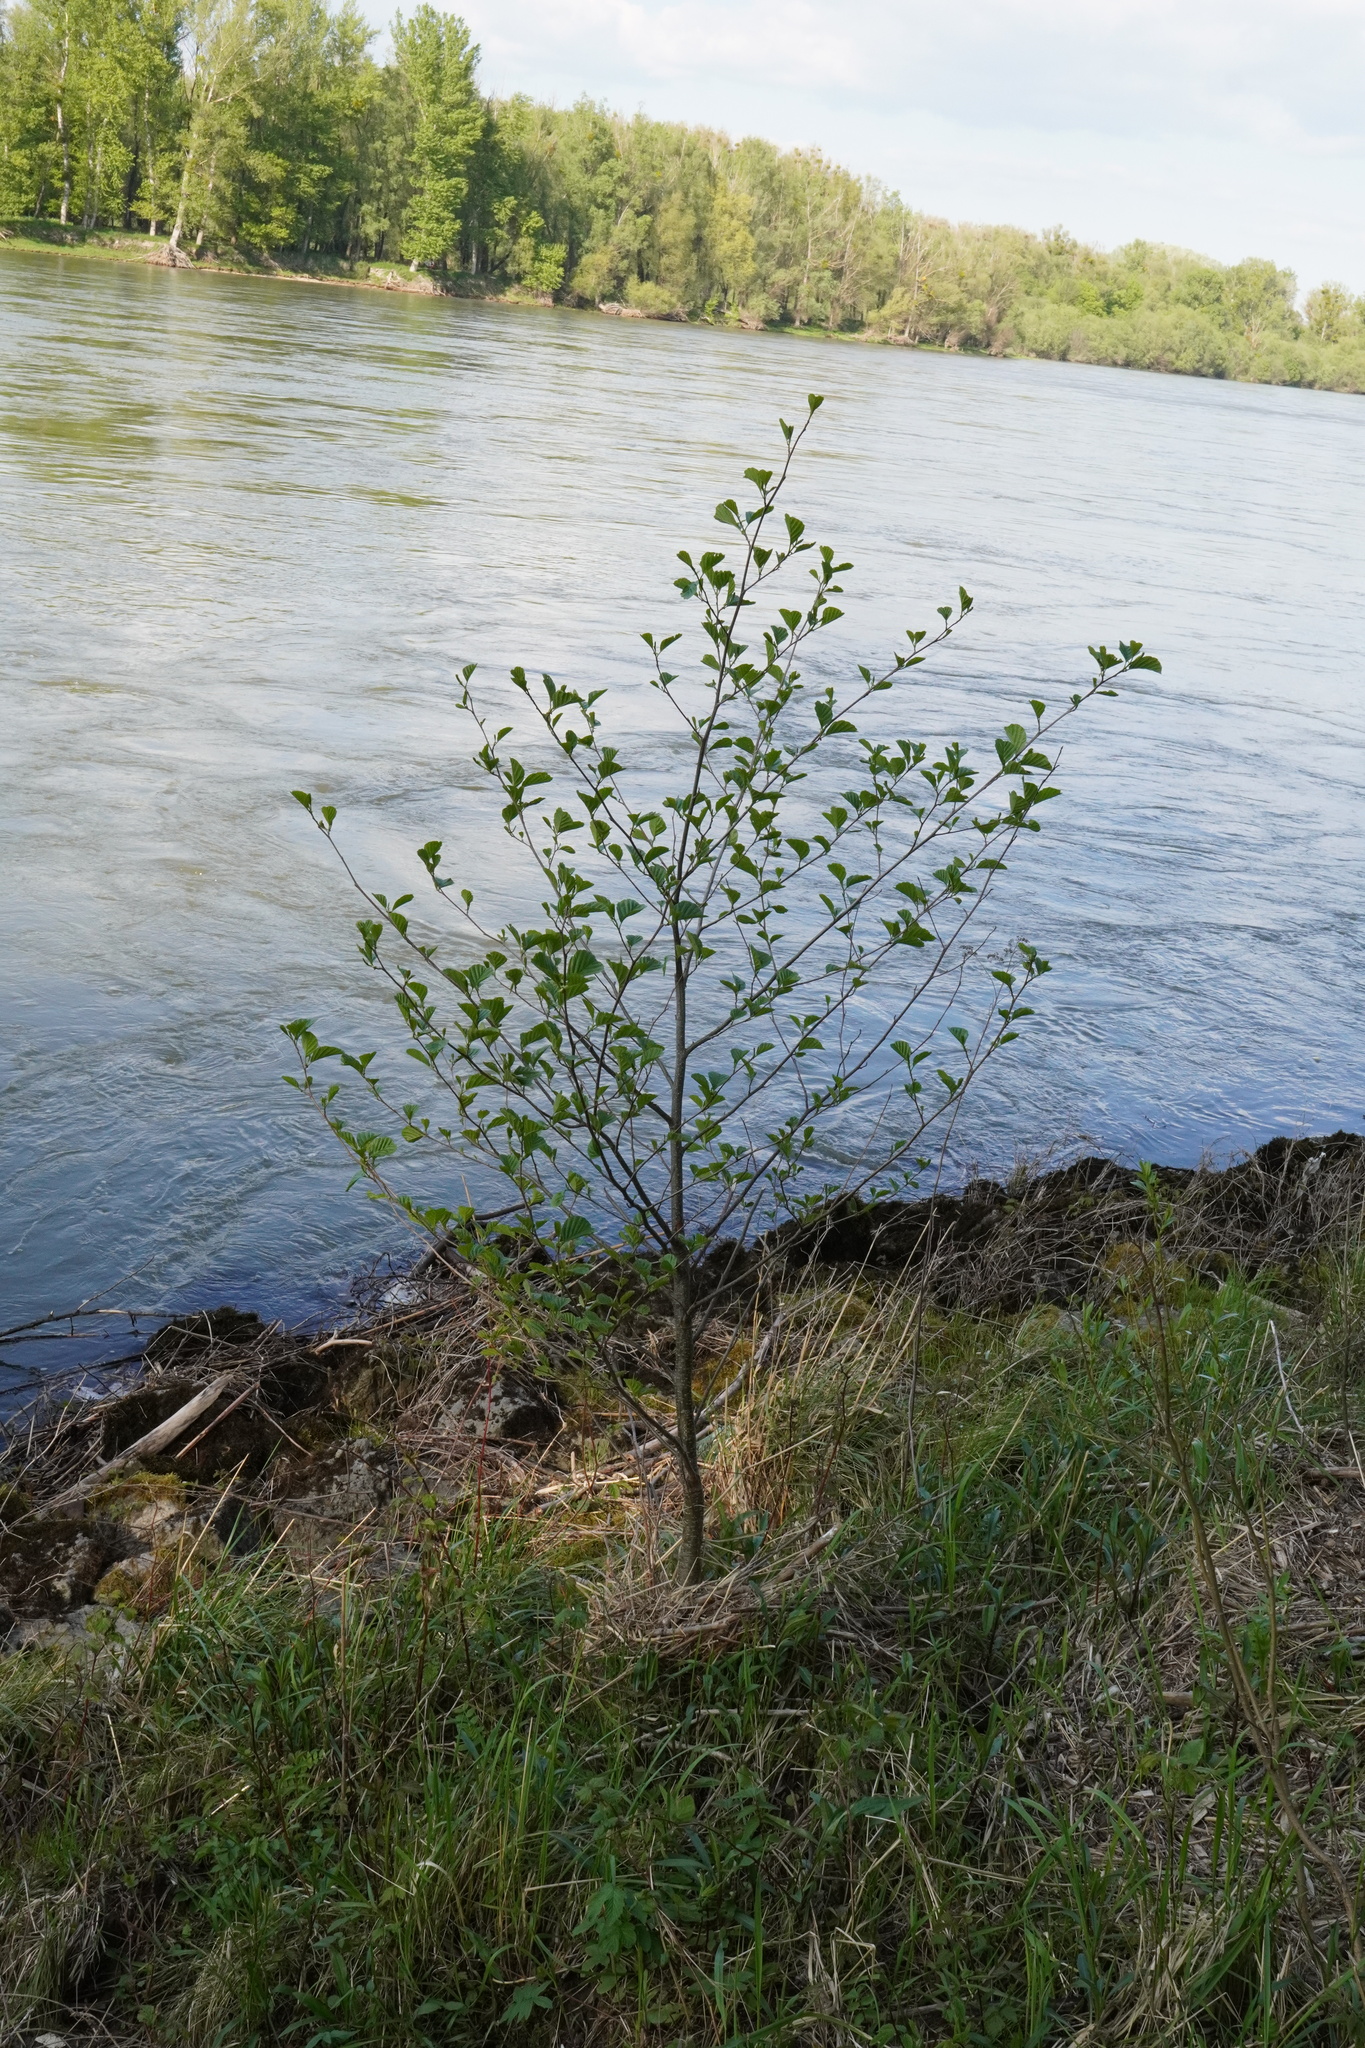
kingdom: Plantae
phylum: Tracheophyta
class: Magnoliopsida
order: Fagales
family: Betulaceae
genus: Alnus
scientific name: Alnus glutinosa
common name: Black alder
